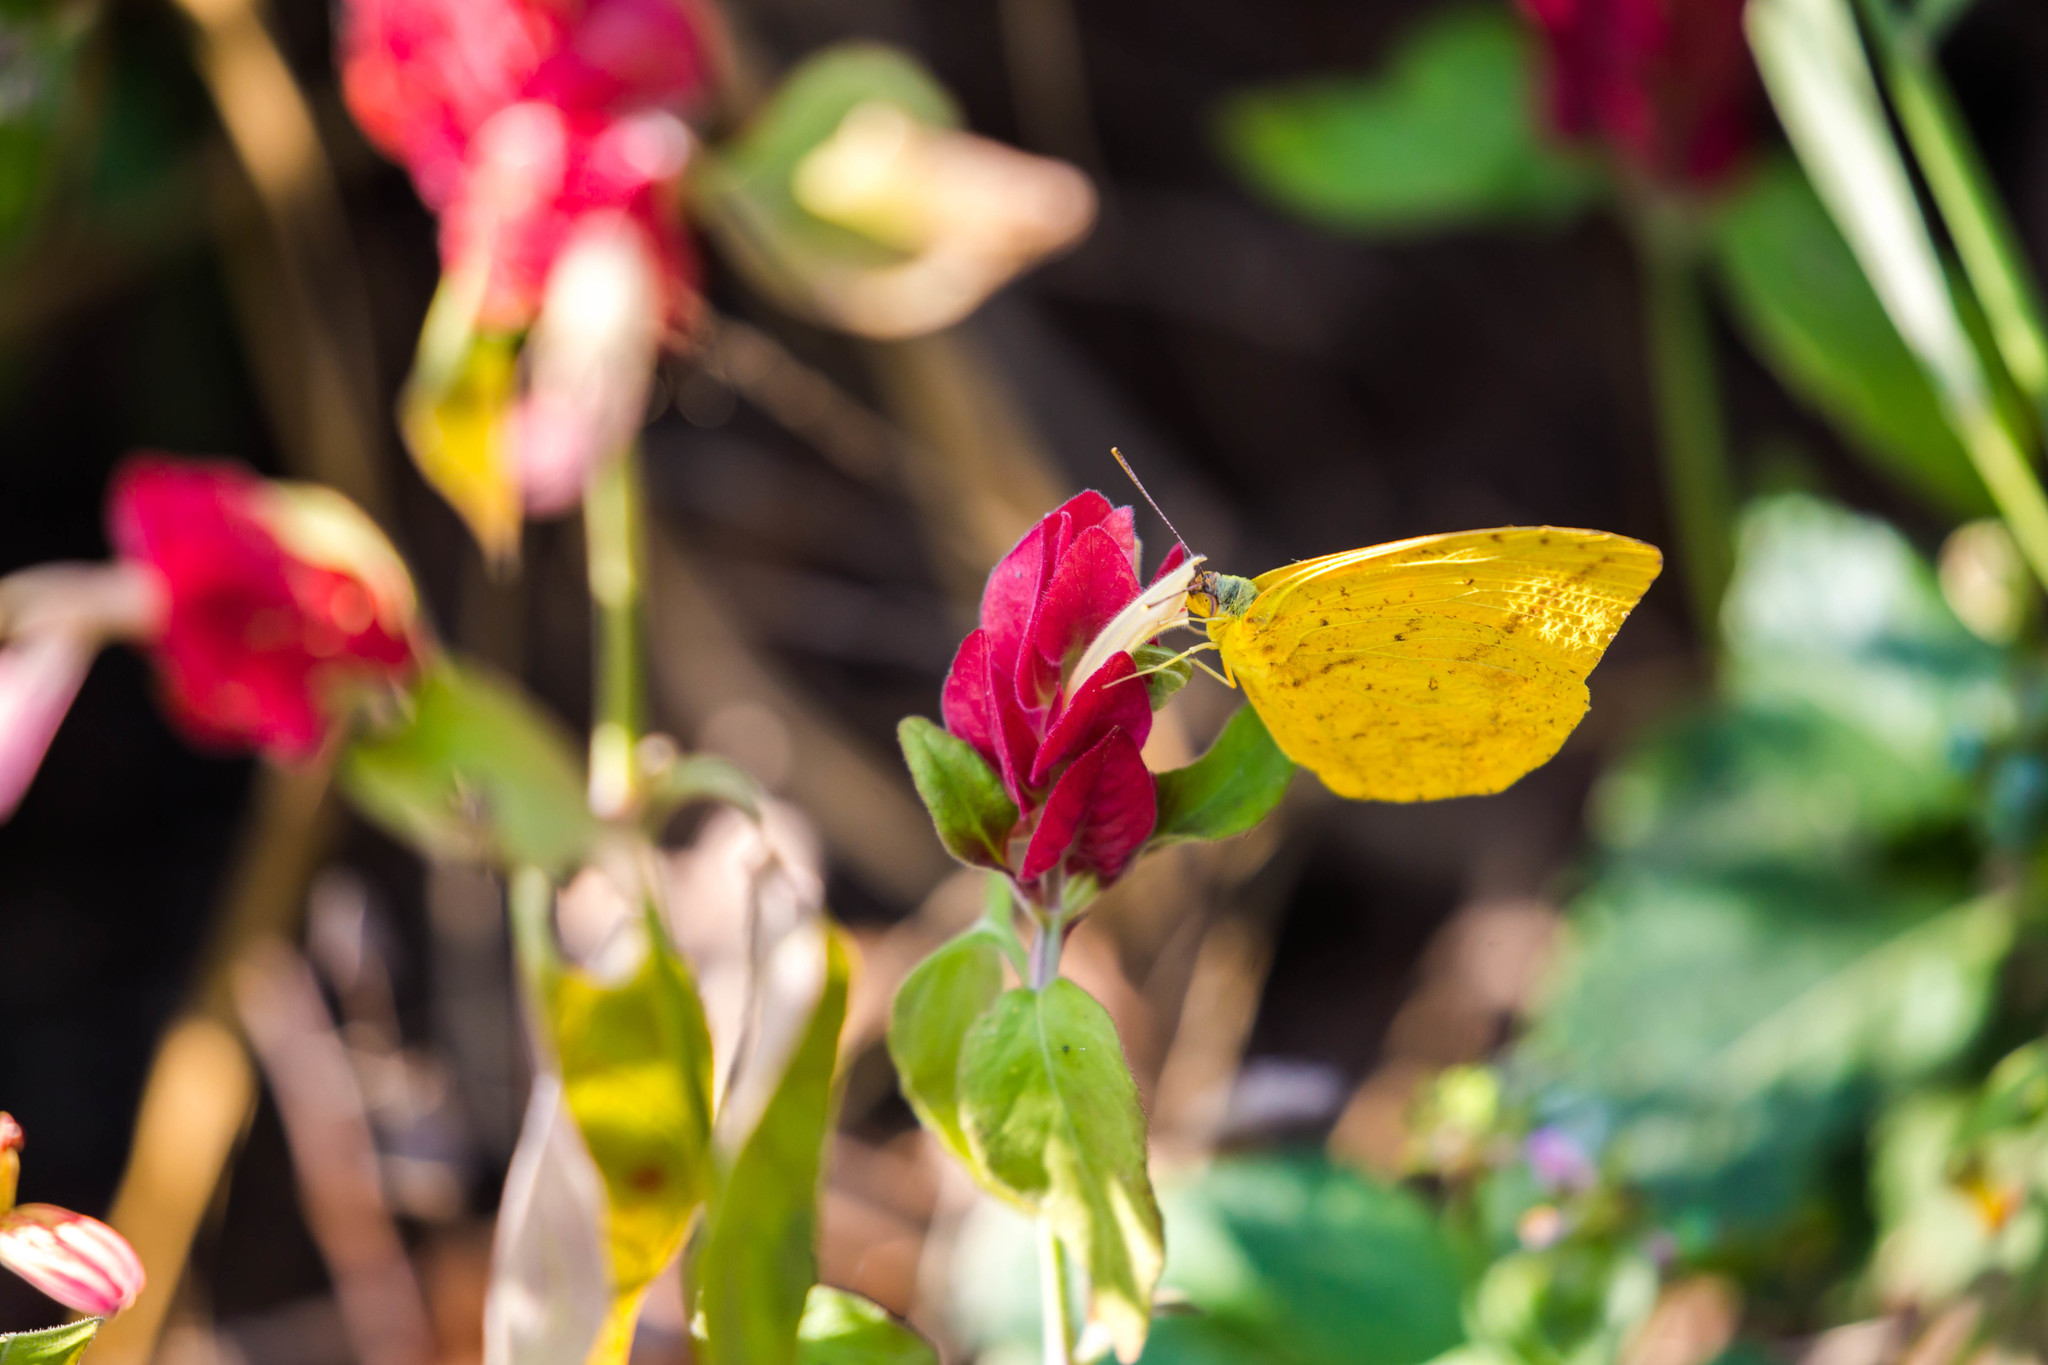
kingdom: Animalia
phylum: Arthropoda
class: Insecta
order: Lepidoptera
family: Pieridae
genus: Phoebis
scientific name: Phoebis agarithe
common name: Large orange sulphur
